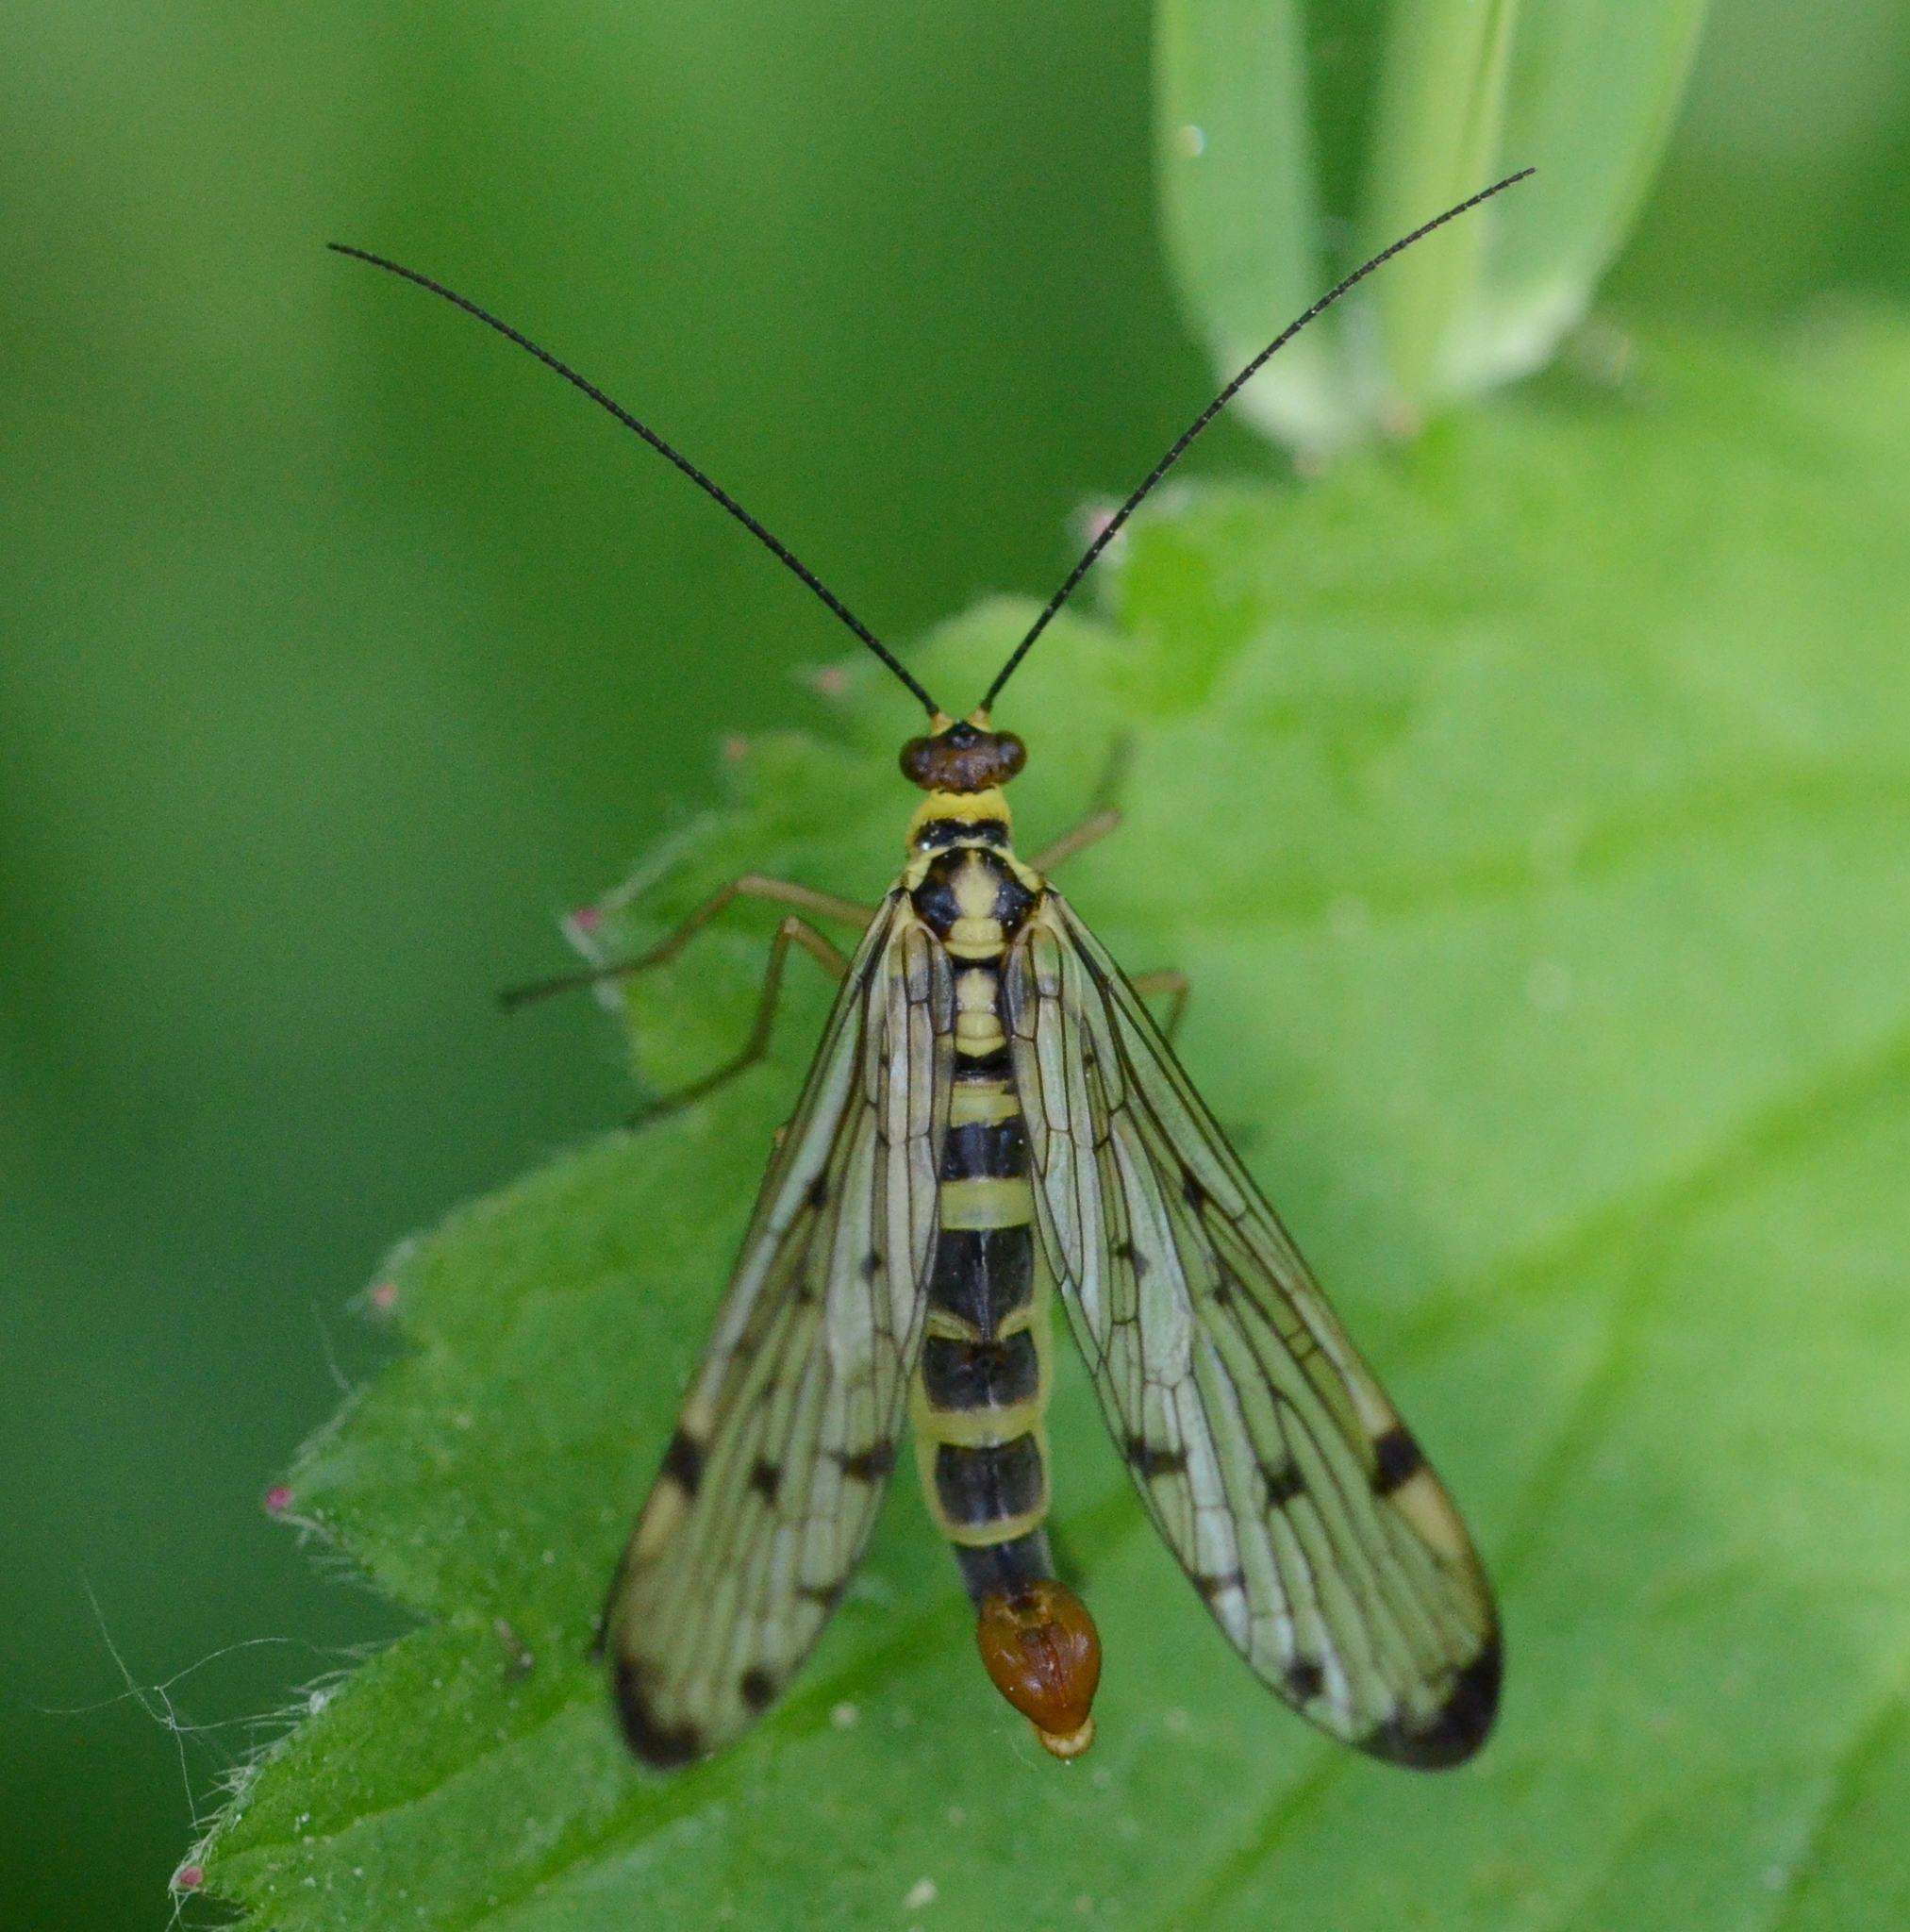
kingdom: Animalia
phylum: Arthropoda
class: Insecta
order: Mecoptera
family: Panorpidae
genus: Panorpa
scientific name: Panorpa germanica
